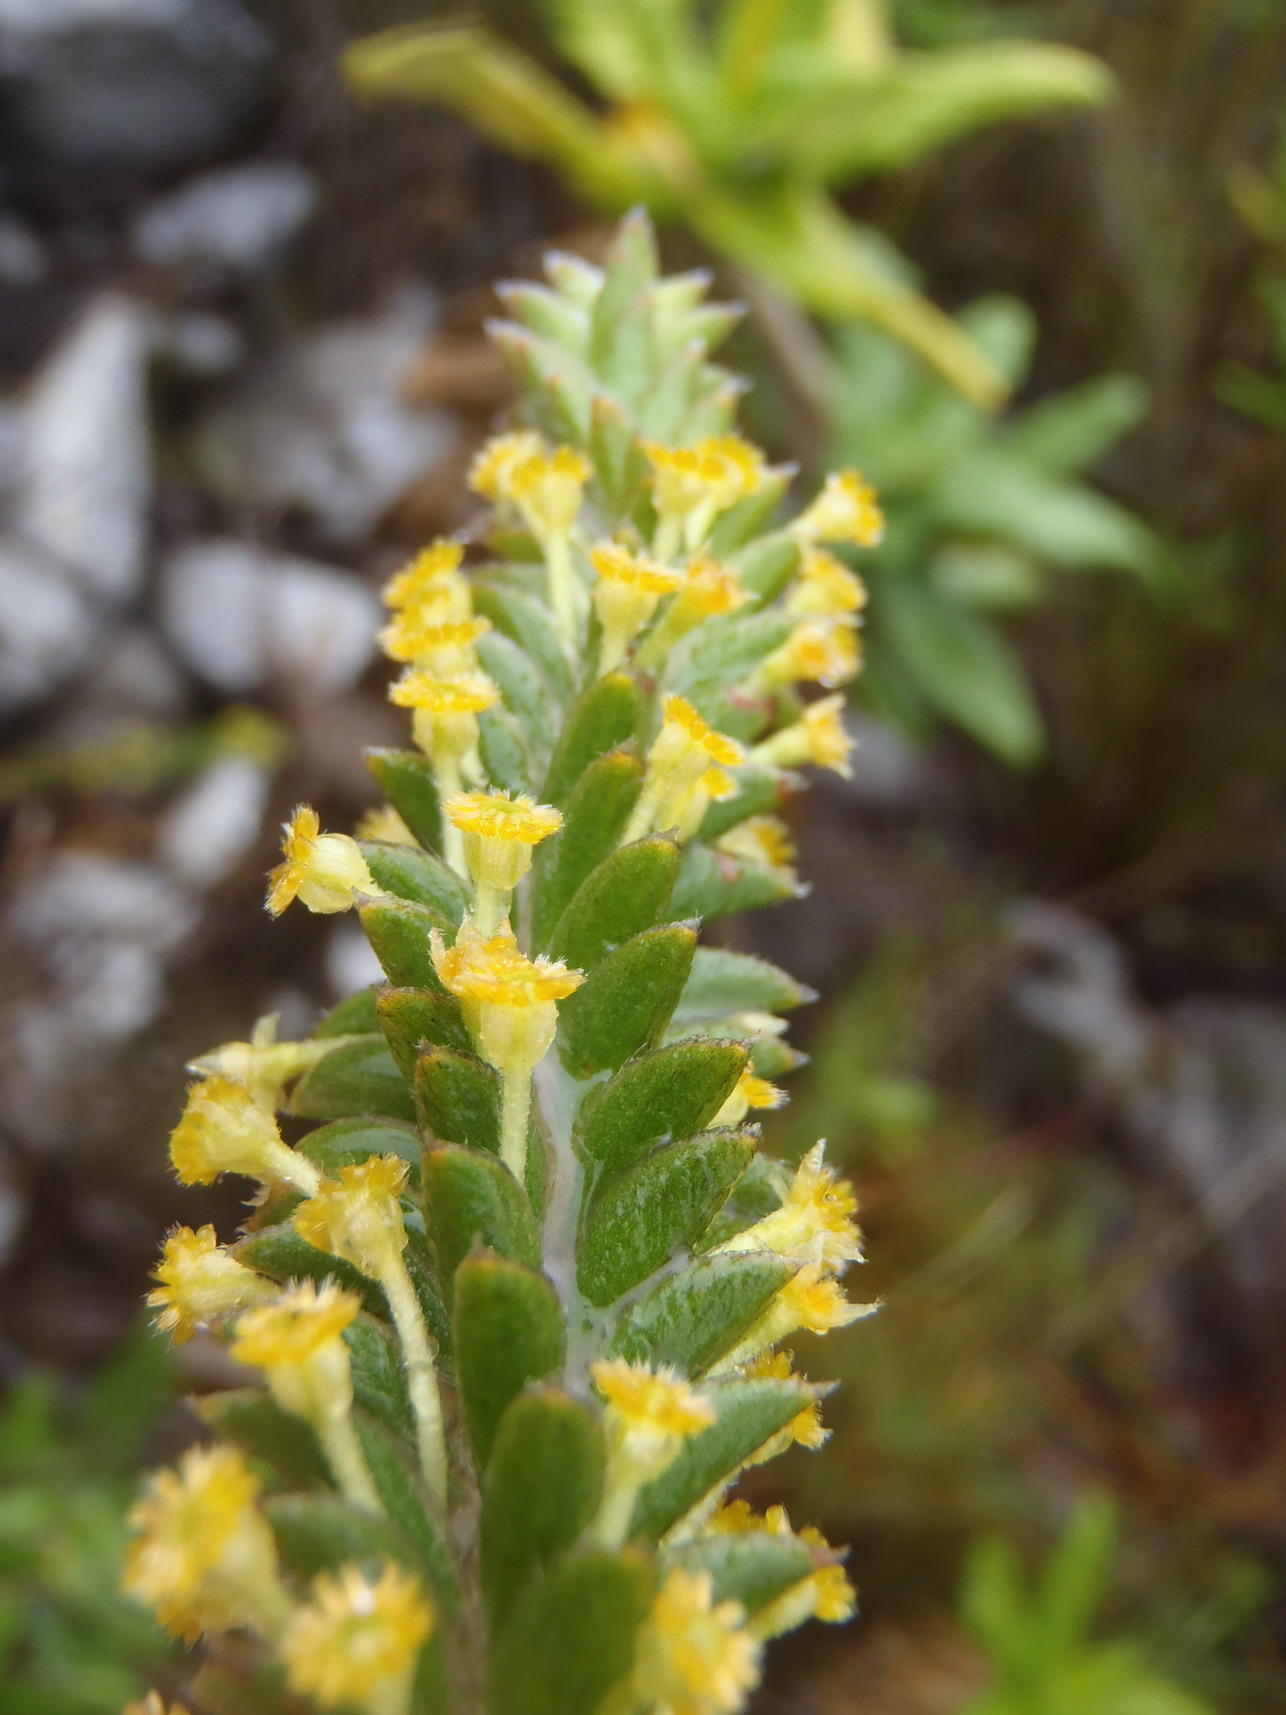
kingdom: Plantae
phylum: Tracheophyta
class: Magnoliopsida
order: Malvales
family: Thymelaeaceae
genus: Struthiola
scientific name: Struthiola tomentosa
